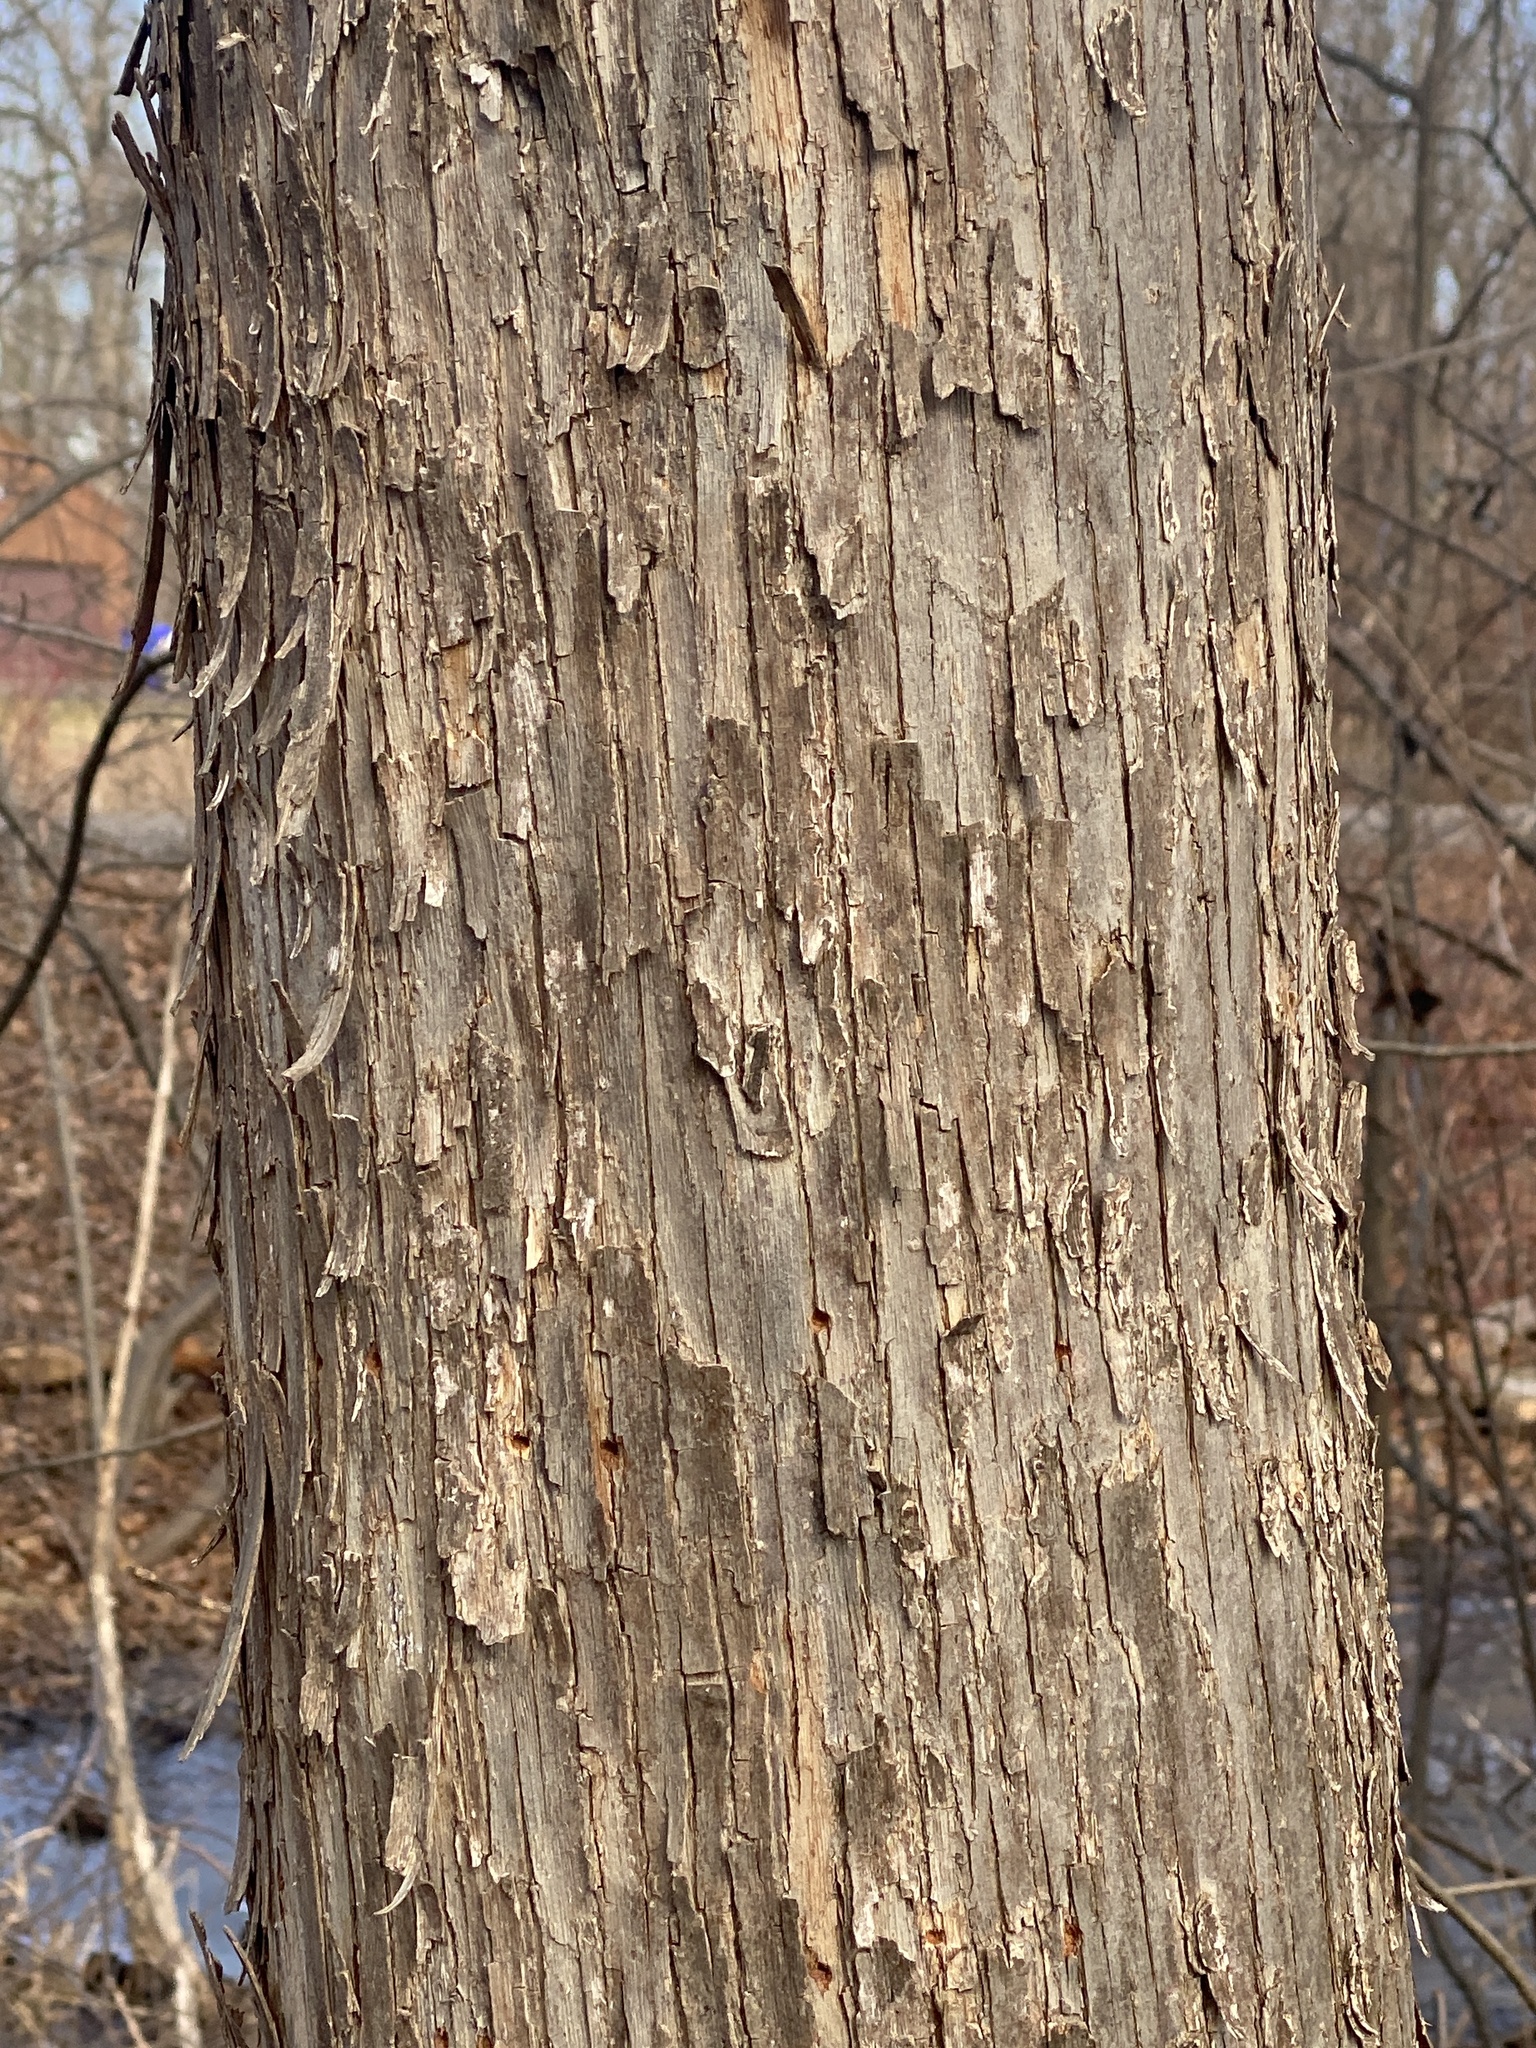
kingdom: Plantae
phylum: Tracheophyta
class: Magnoliopsida
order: Fagales
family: Betulaceae
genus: Ostrya
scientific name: Ostrya virginiana
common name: Ironwood
